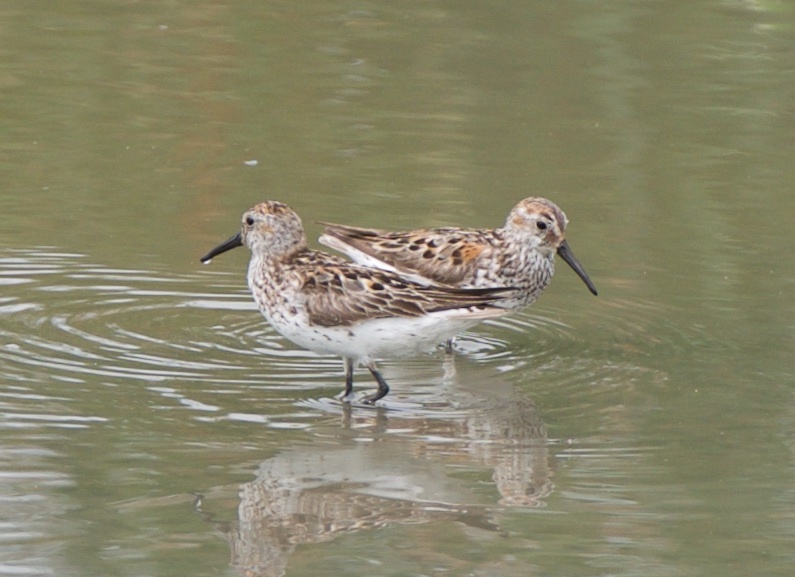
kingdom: Animalia
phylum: Chordata
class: Aves
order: Charadriiformes
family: Scolopacidae
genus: Calidris
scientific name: Calidris mauri
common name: Western sandpiper
